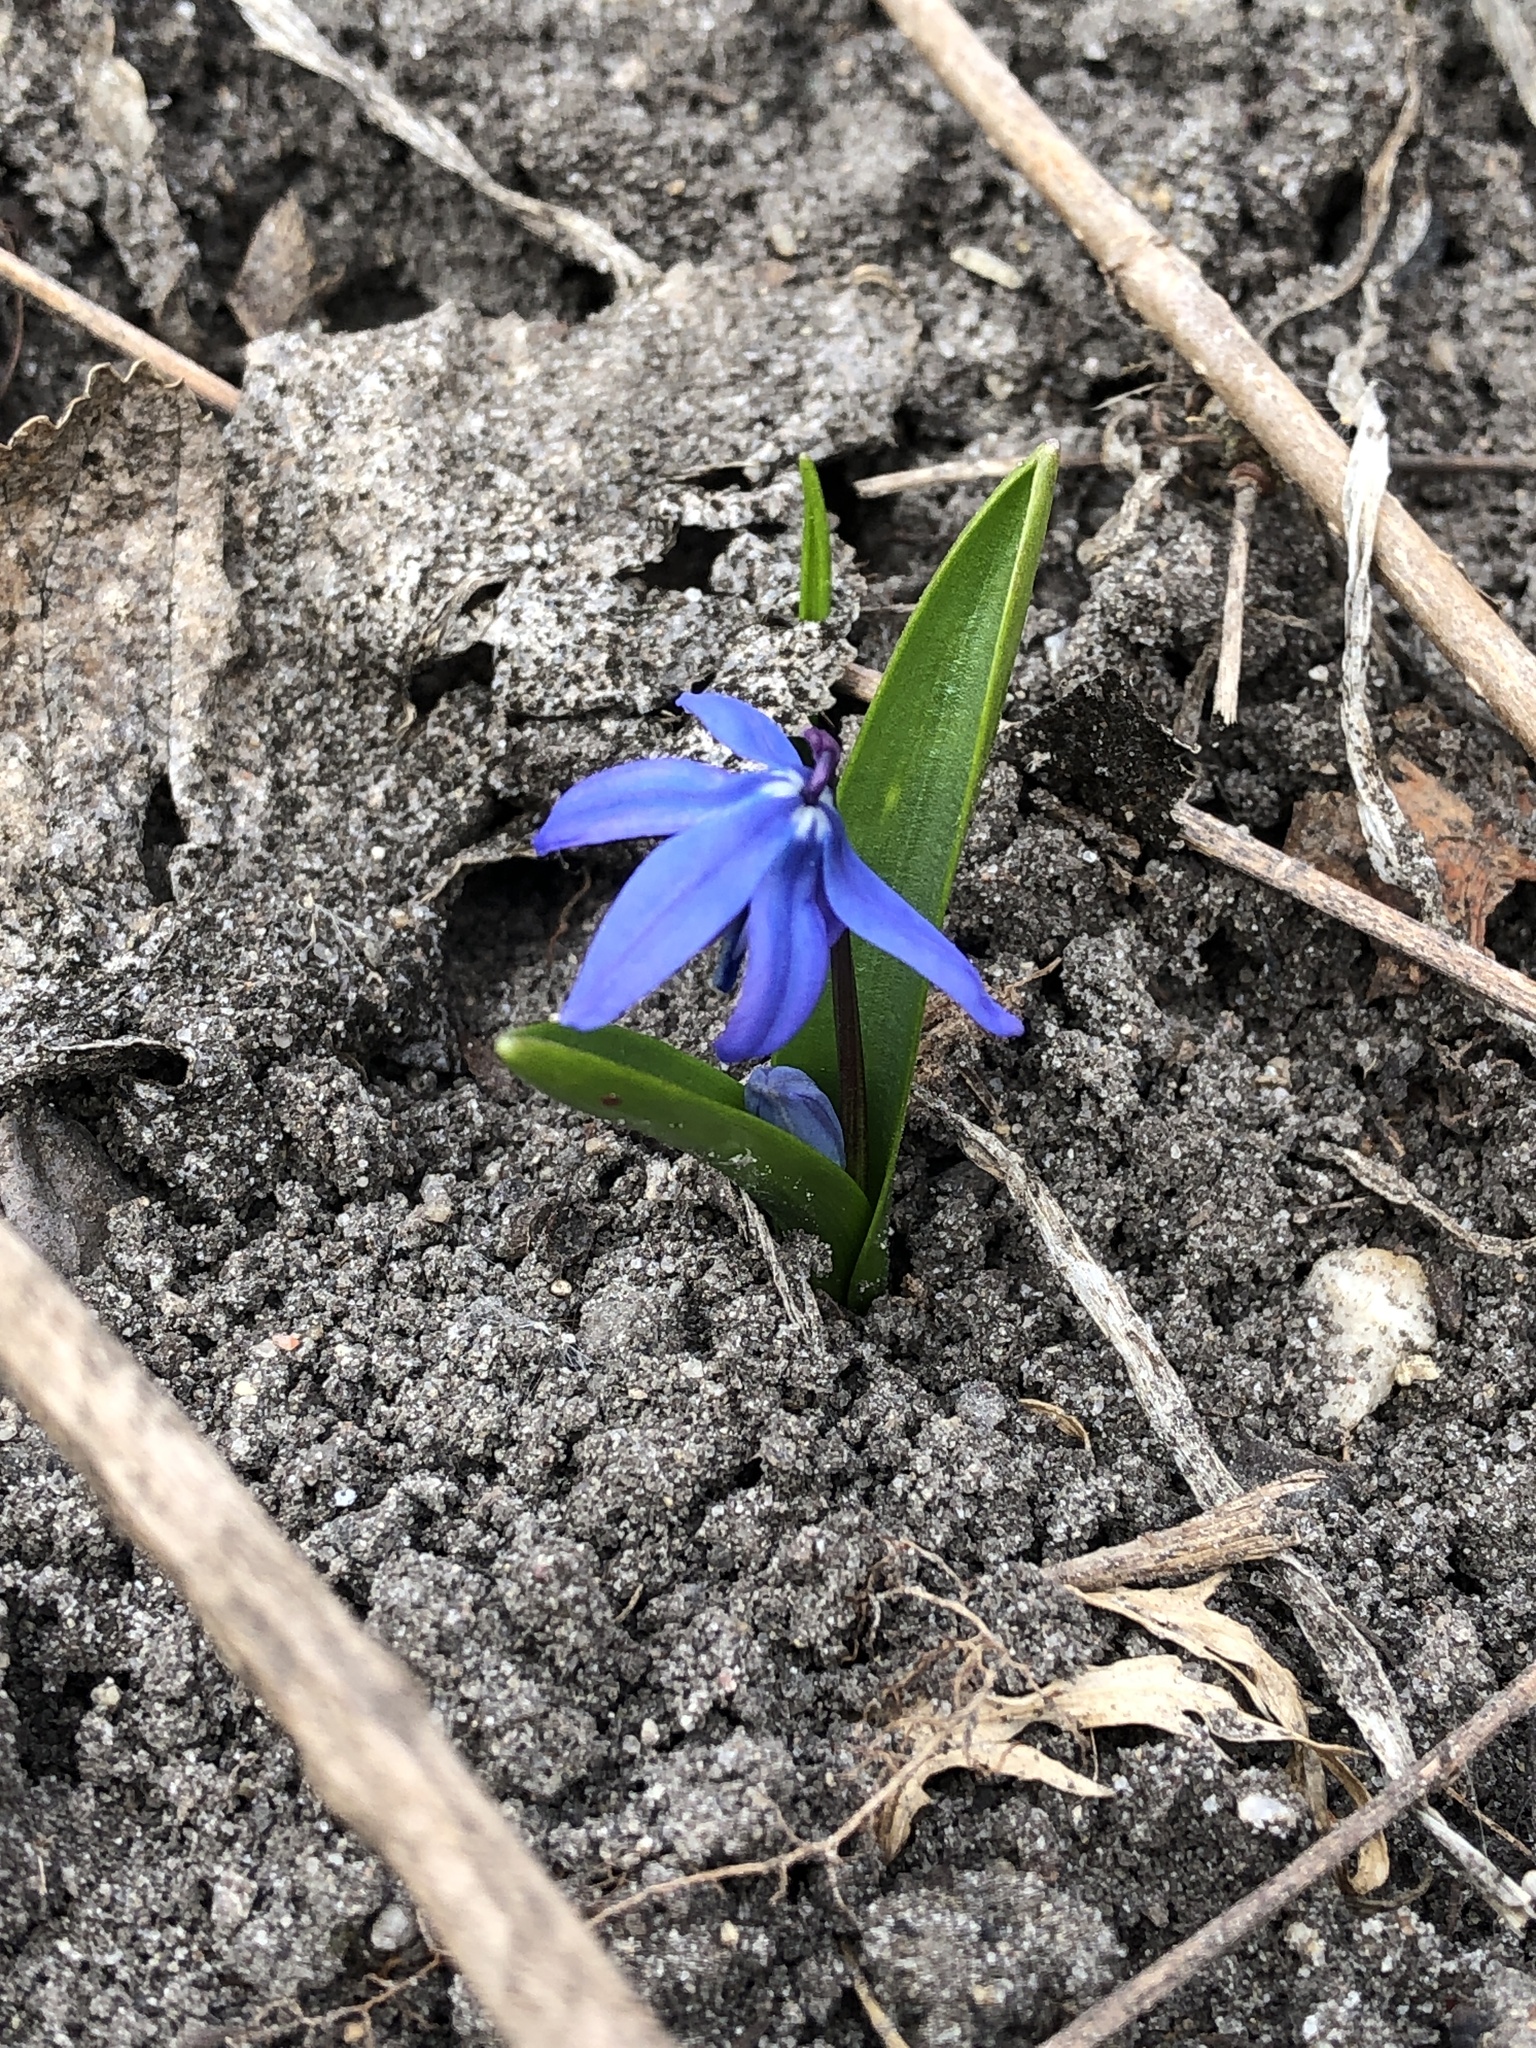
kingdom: Plantae
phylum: Tracheophyta
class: Liliopsida
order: Asparagales
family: Asparagaceae
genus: Scilla
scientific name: Scilla siberica
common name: Siberian squill
